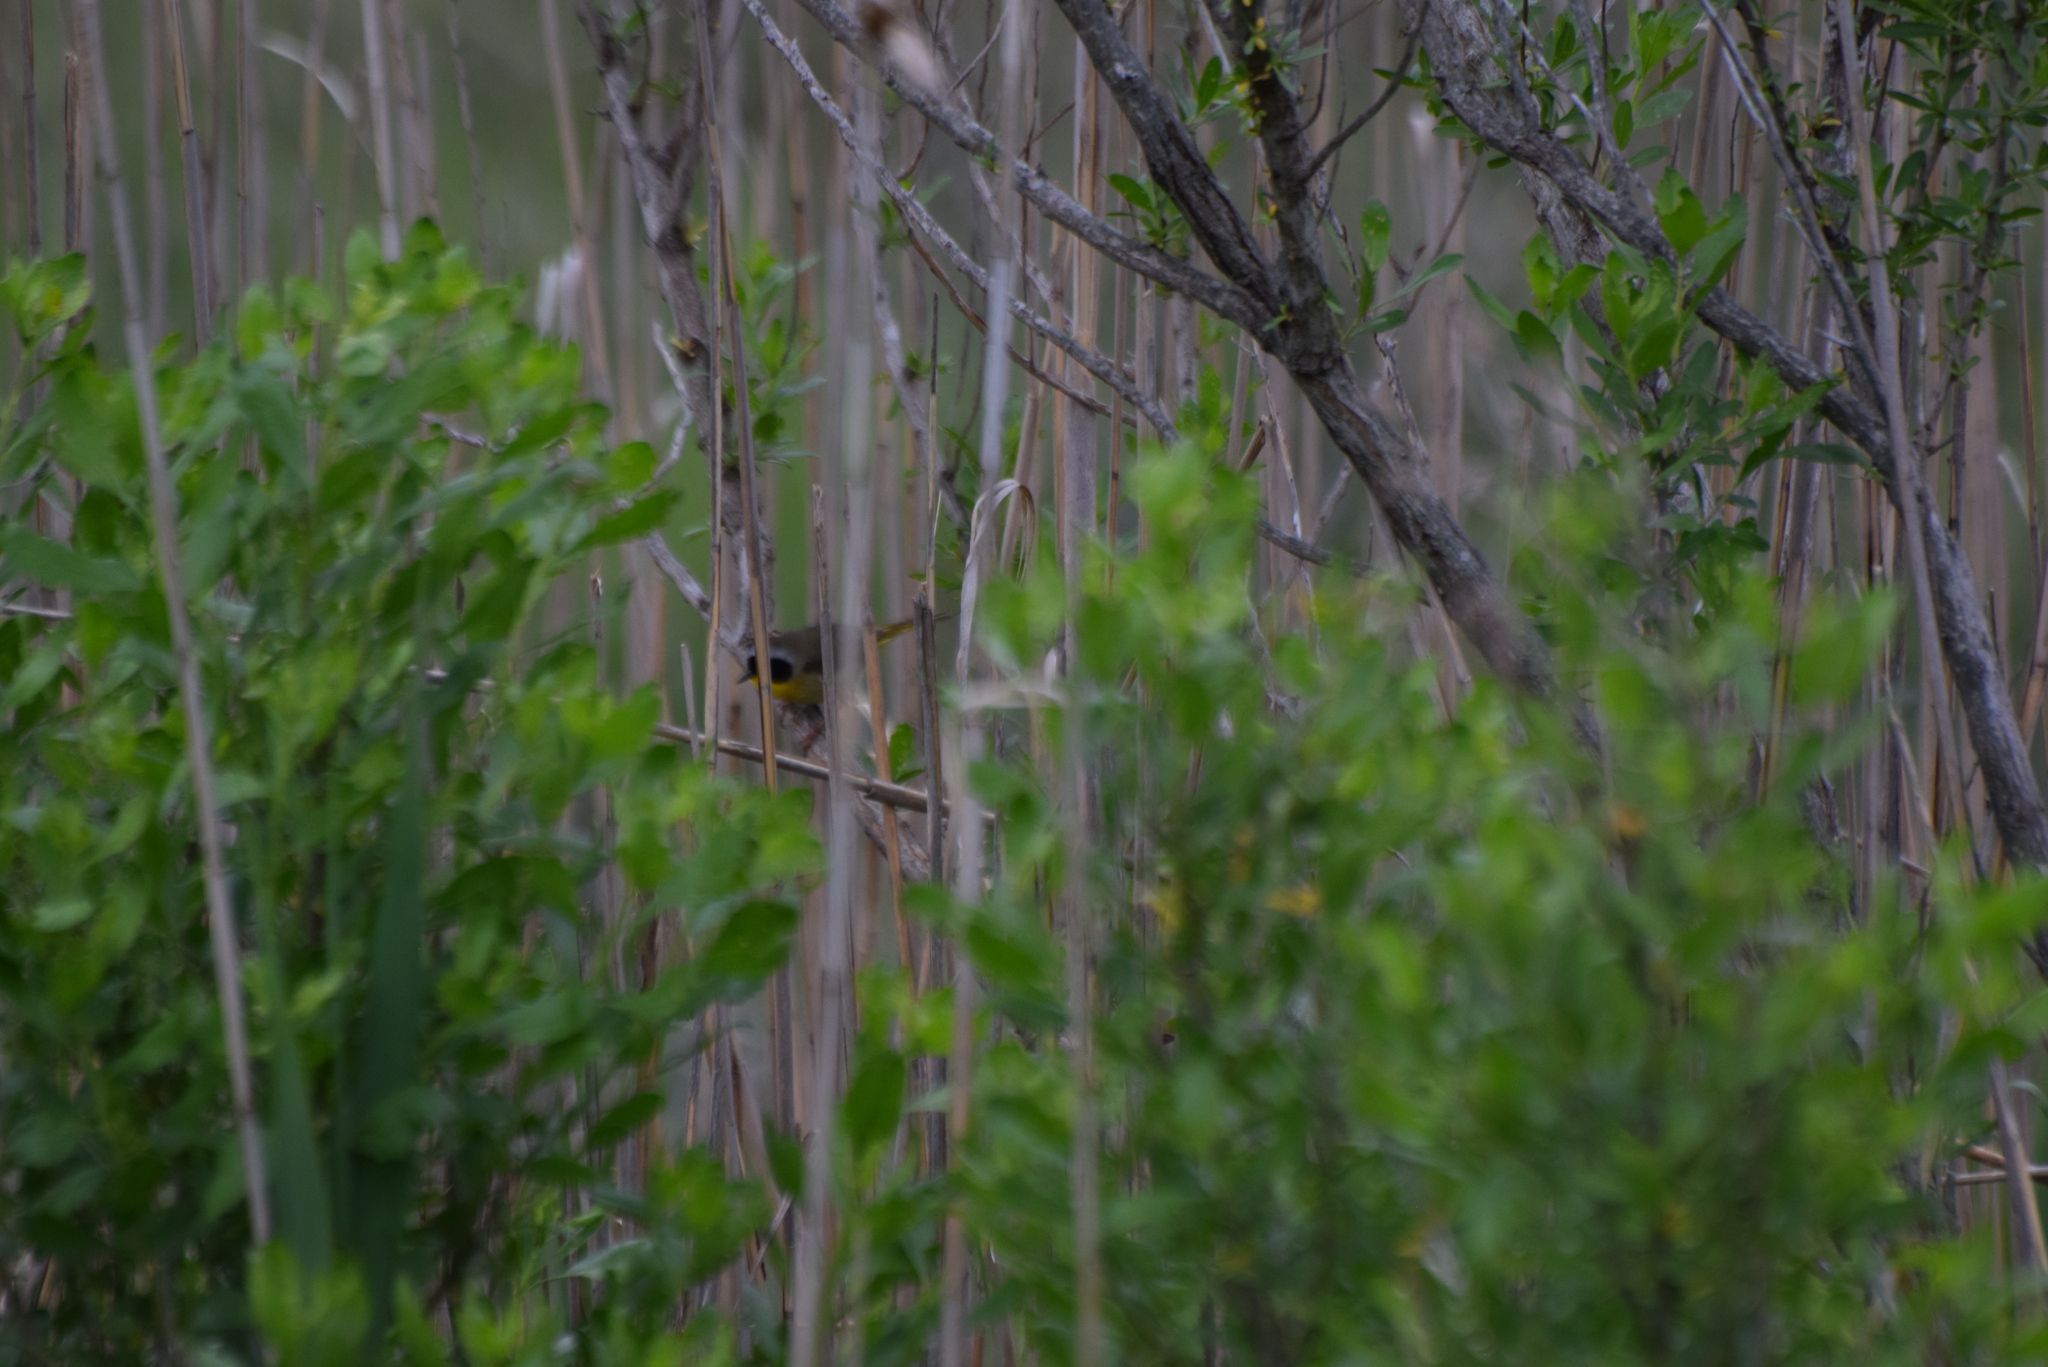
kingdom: Animalia
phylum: Chordata
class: Aves
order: Passeriformes
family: Parulidae
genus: Geothlypis
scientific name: Geothlypis trichas
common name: Common yellowthroat
